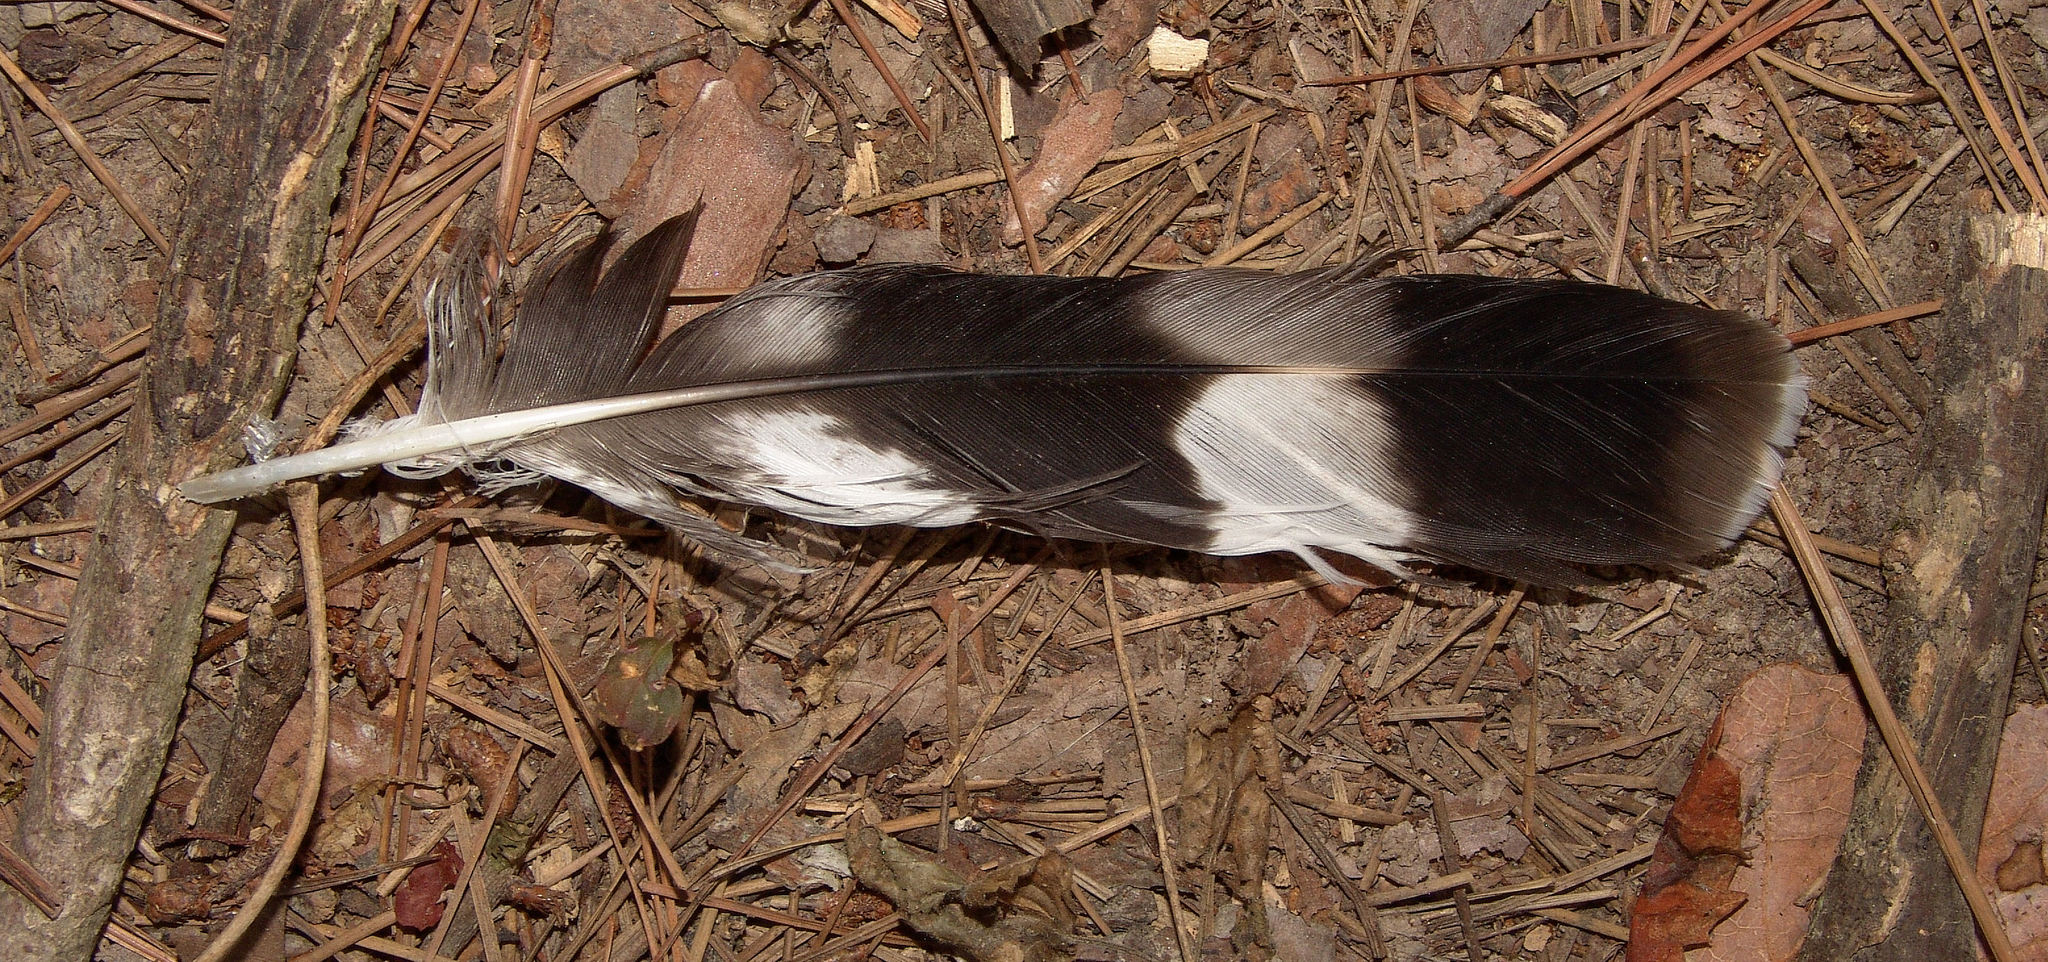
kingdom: Animalia
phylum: Chordata
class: Aves
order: Accipitriformes
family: Accipitridae
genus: Buteo
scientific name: Buteo platypterus
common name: Broad-winged hawk
